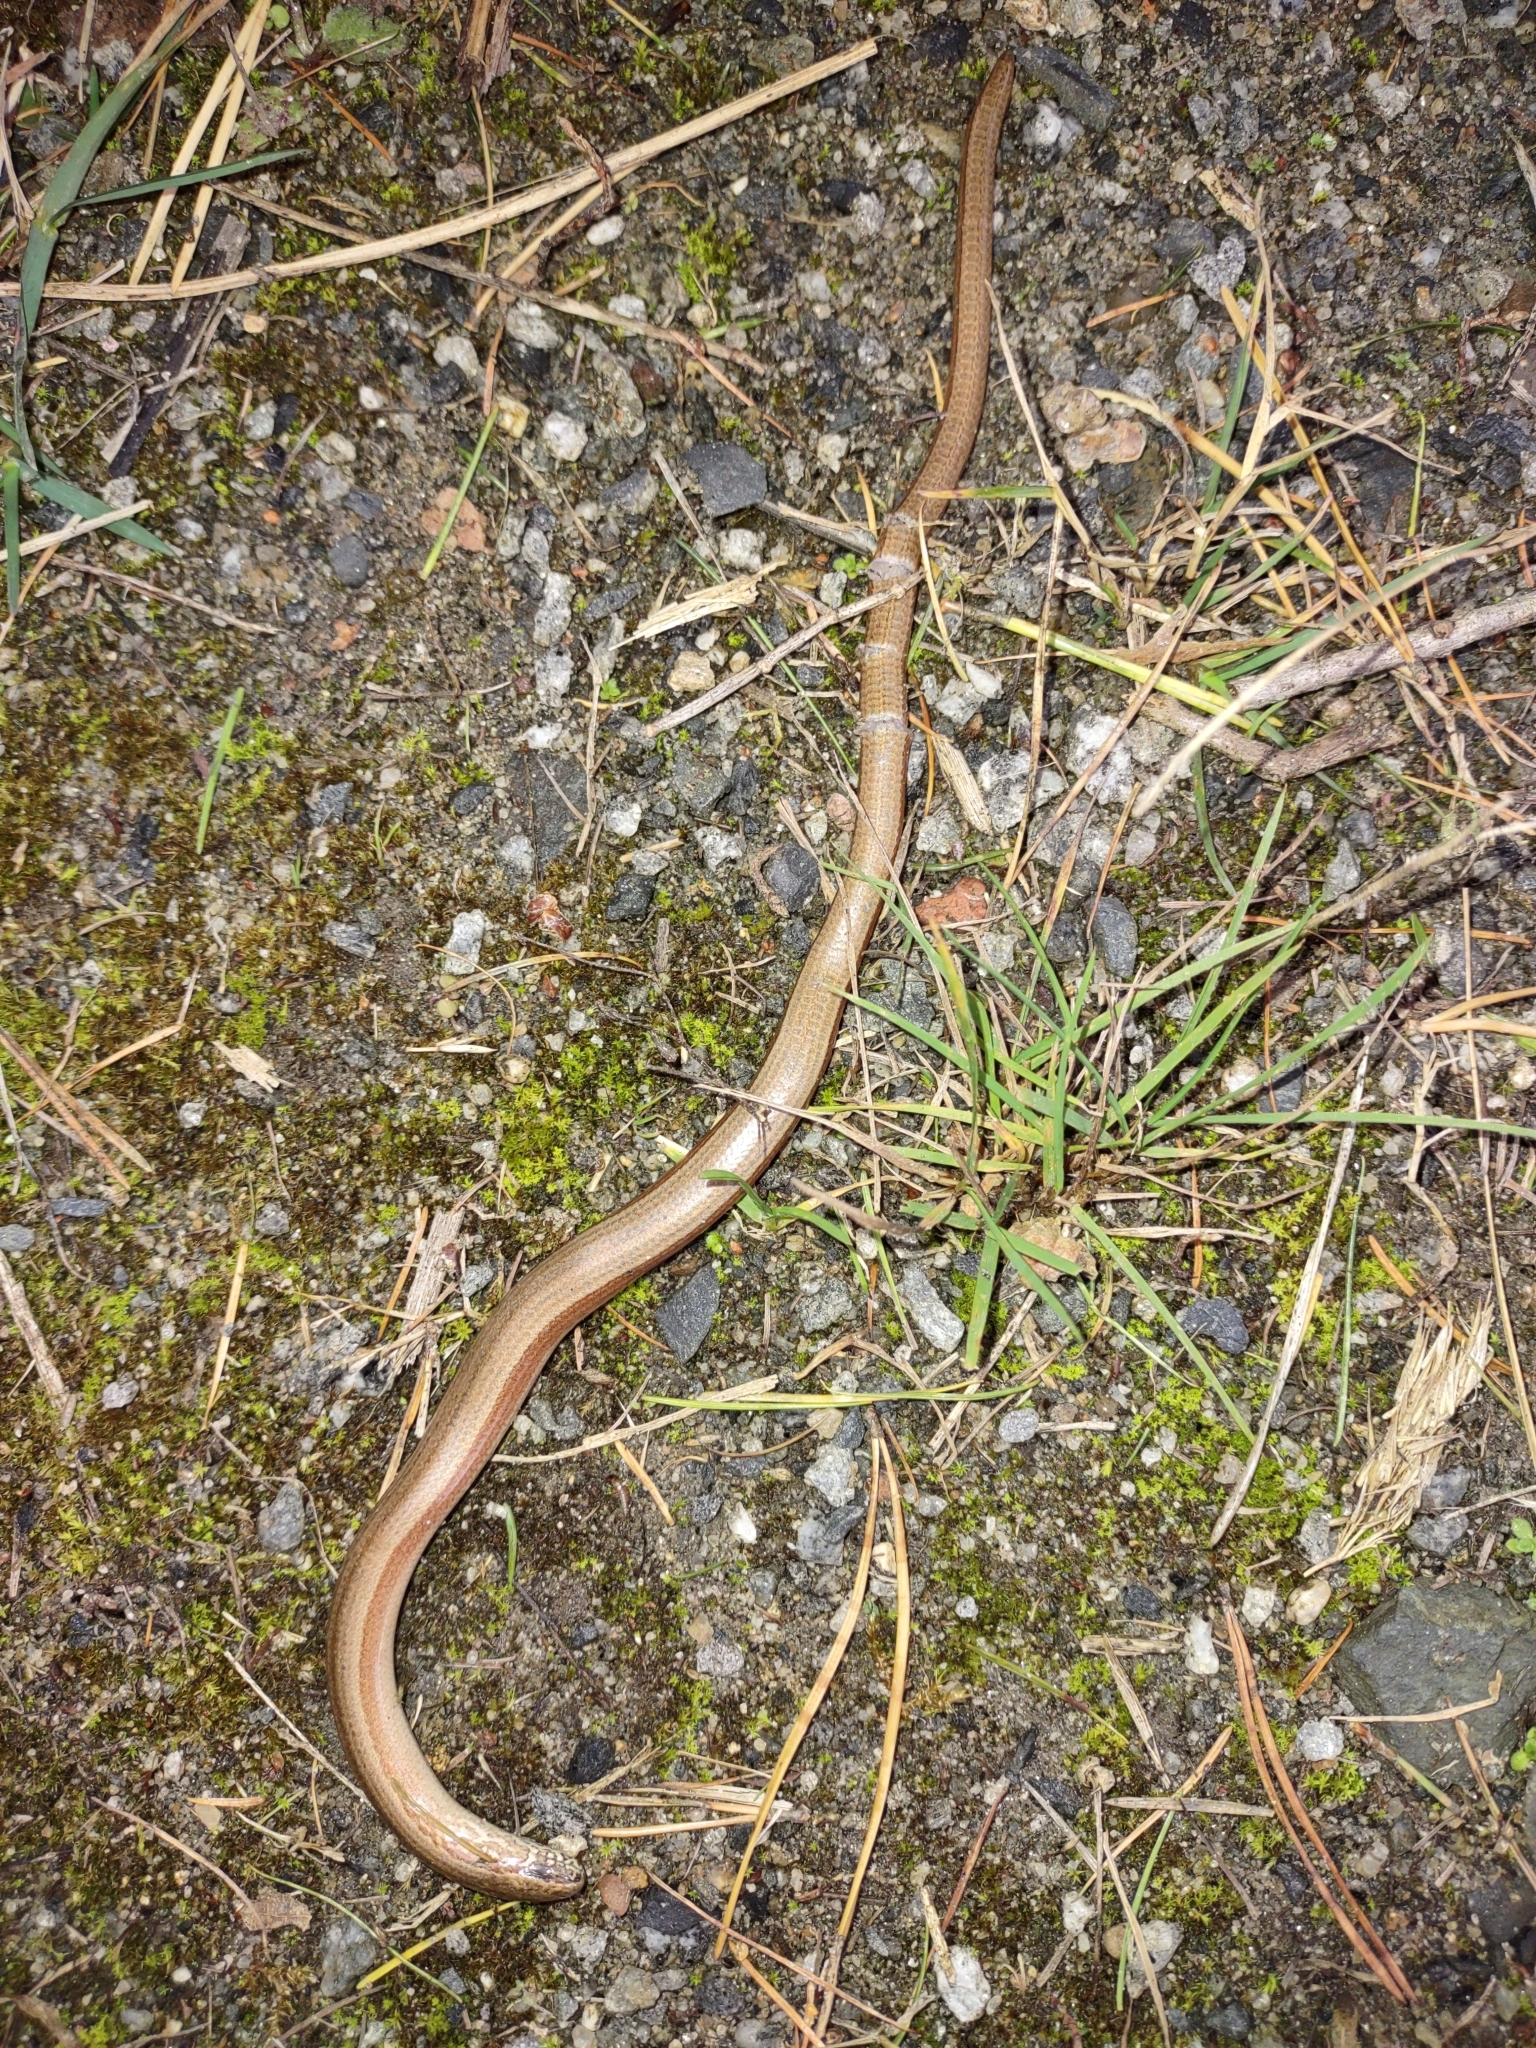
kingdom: Animalia
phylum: Chordata
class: Squamata
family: Anguidae
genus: Anguis
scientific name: Anguis fragilis
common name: Slow worm
